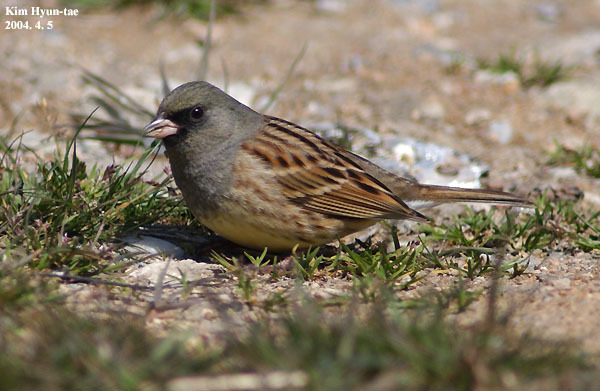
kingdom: Animalia
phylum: Chordata
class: Aves
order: Passeriformes
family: Emberizidae
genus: Emberiza
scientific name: Emberiza spodocephala
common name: Black-faced bunting
